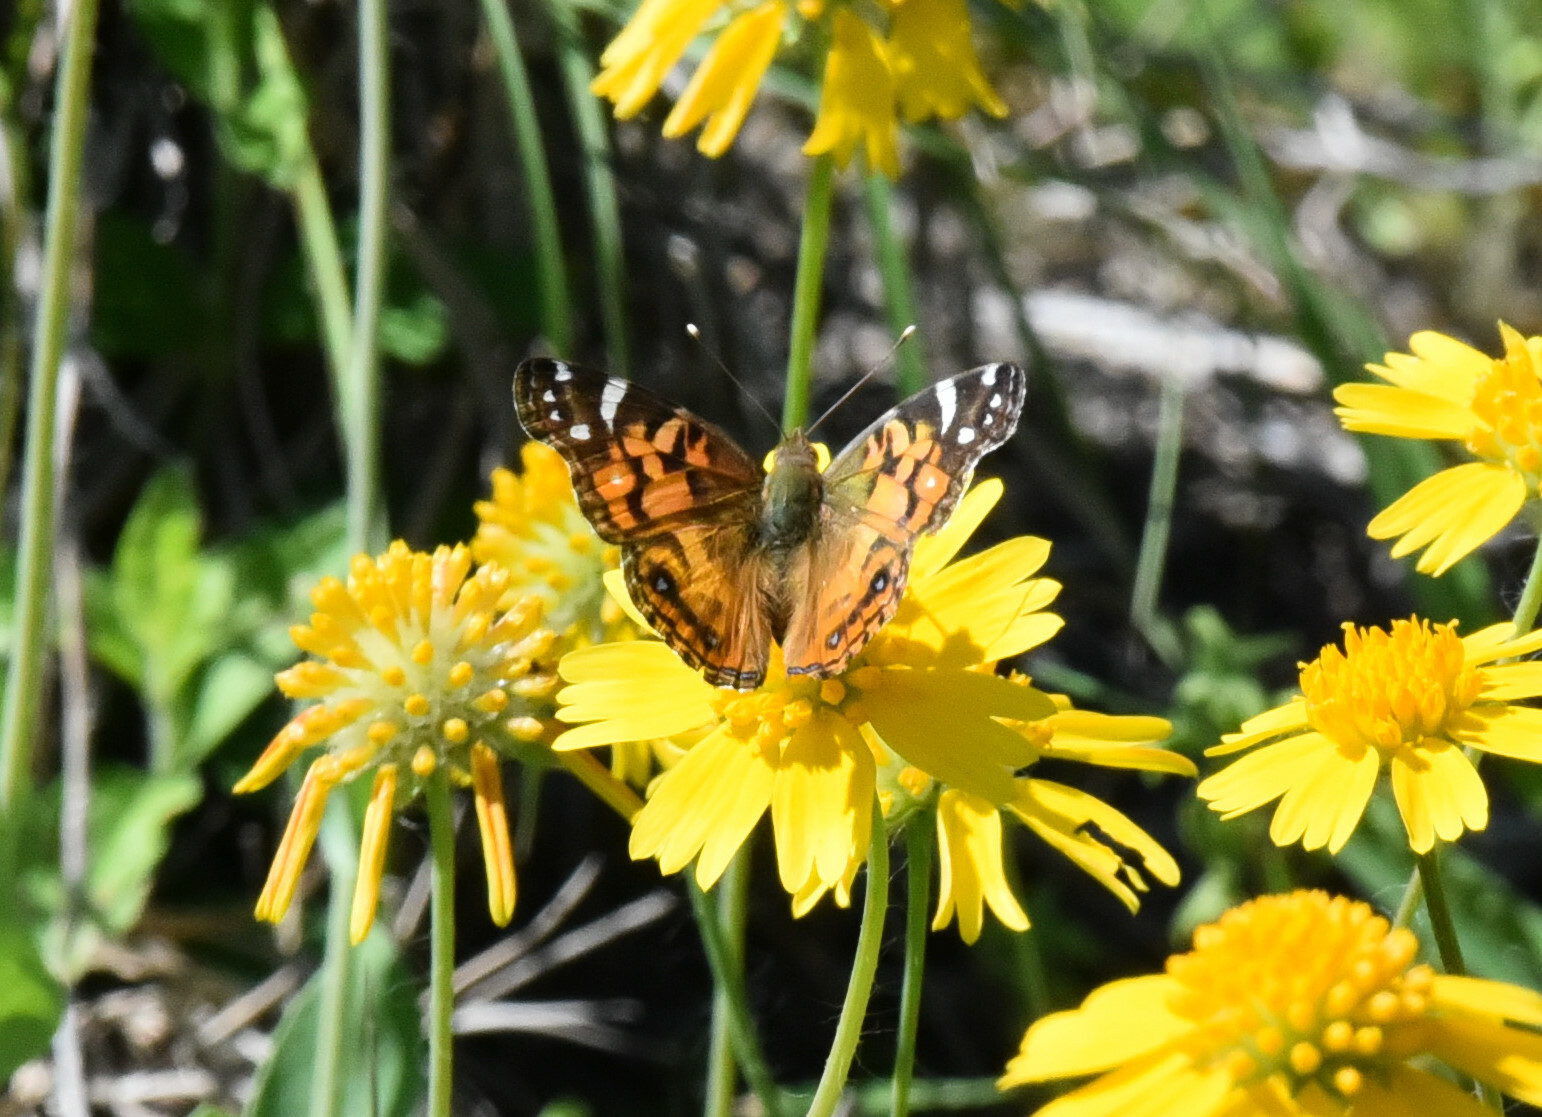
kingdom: Animalia
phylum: Arthropoda
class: Insecta
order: Lepidoptera
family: Nymphalidae
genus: Vanessa
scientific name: Vanessa virginiensis
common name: American lady
